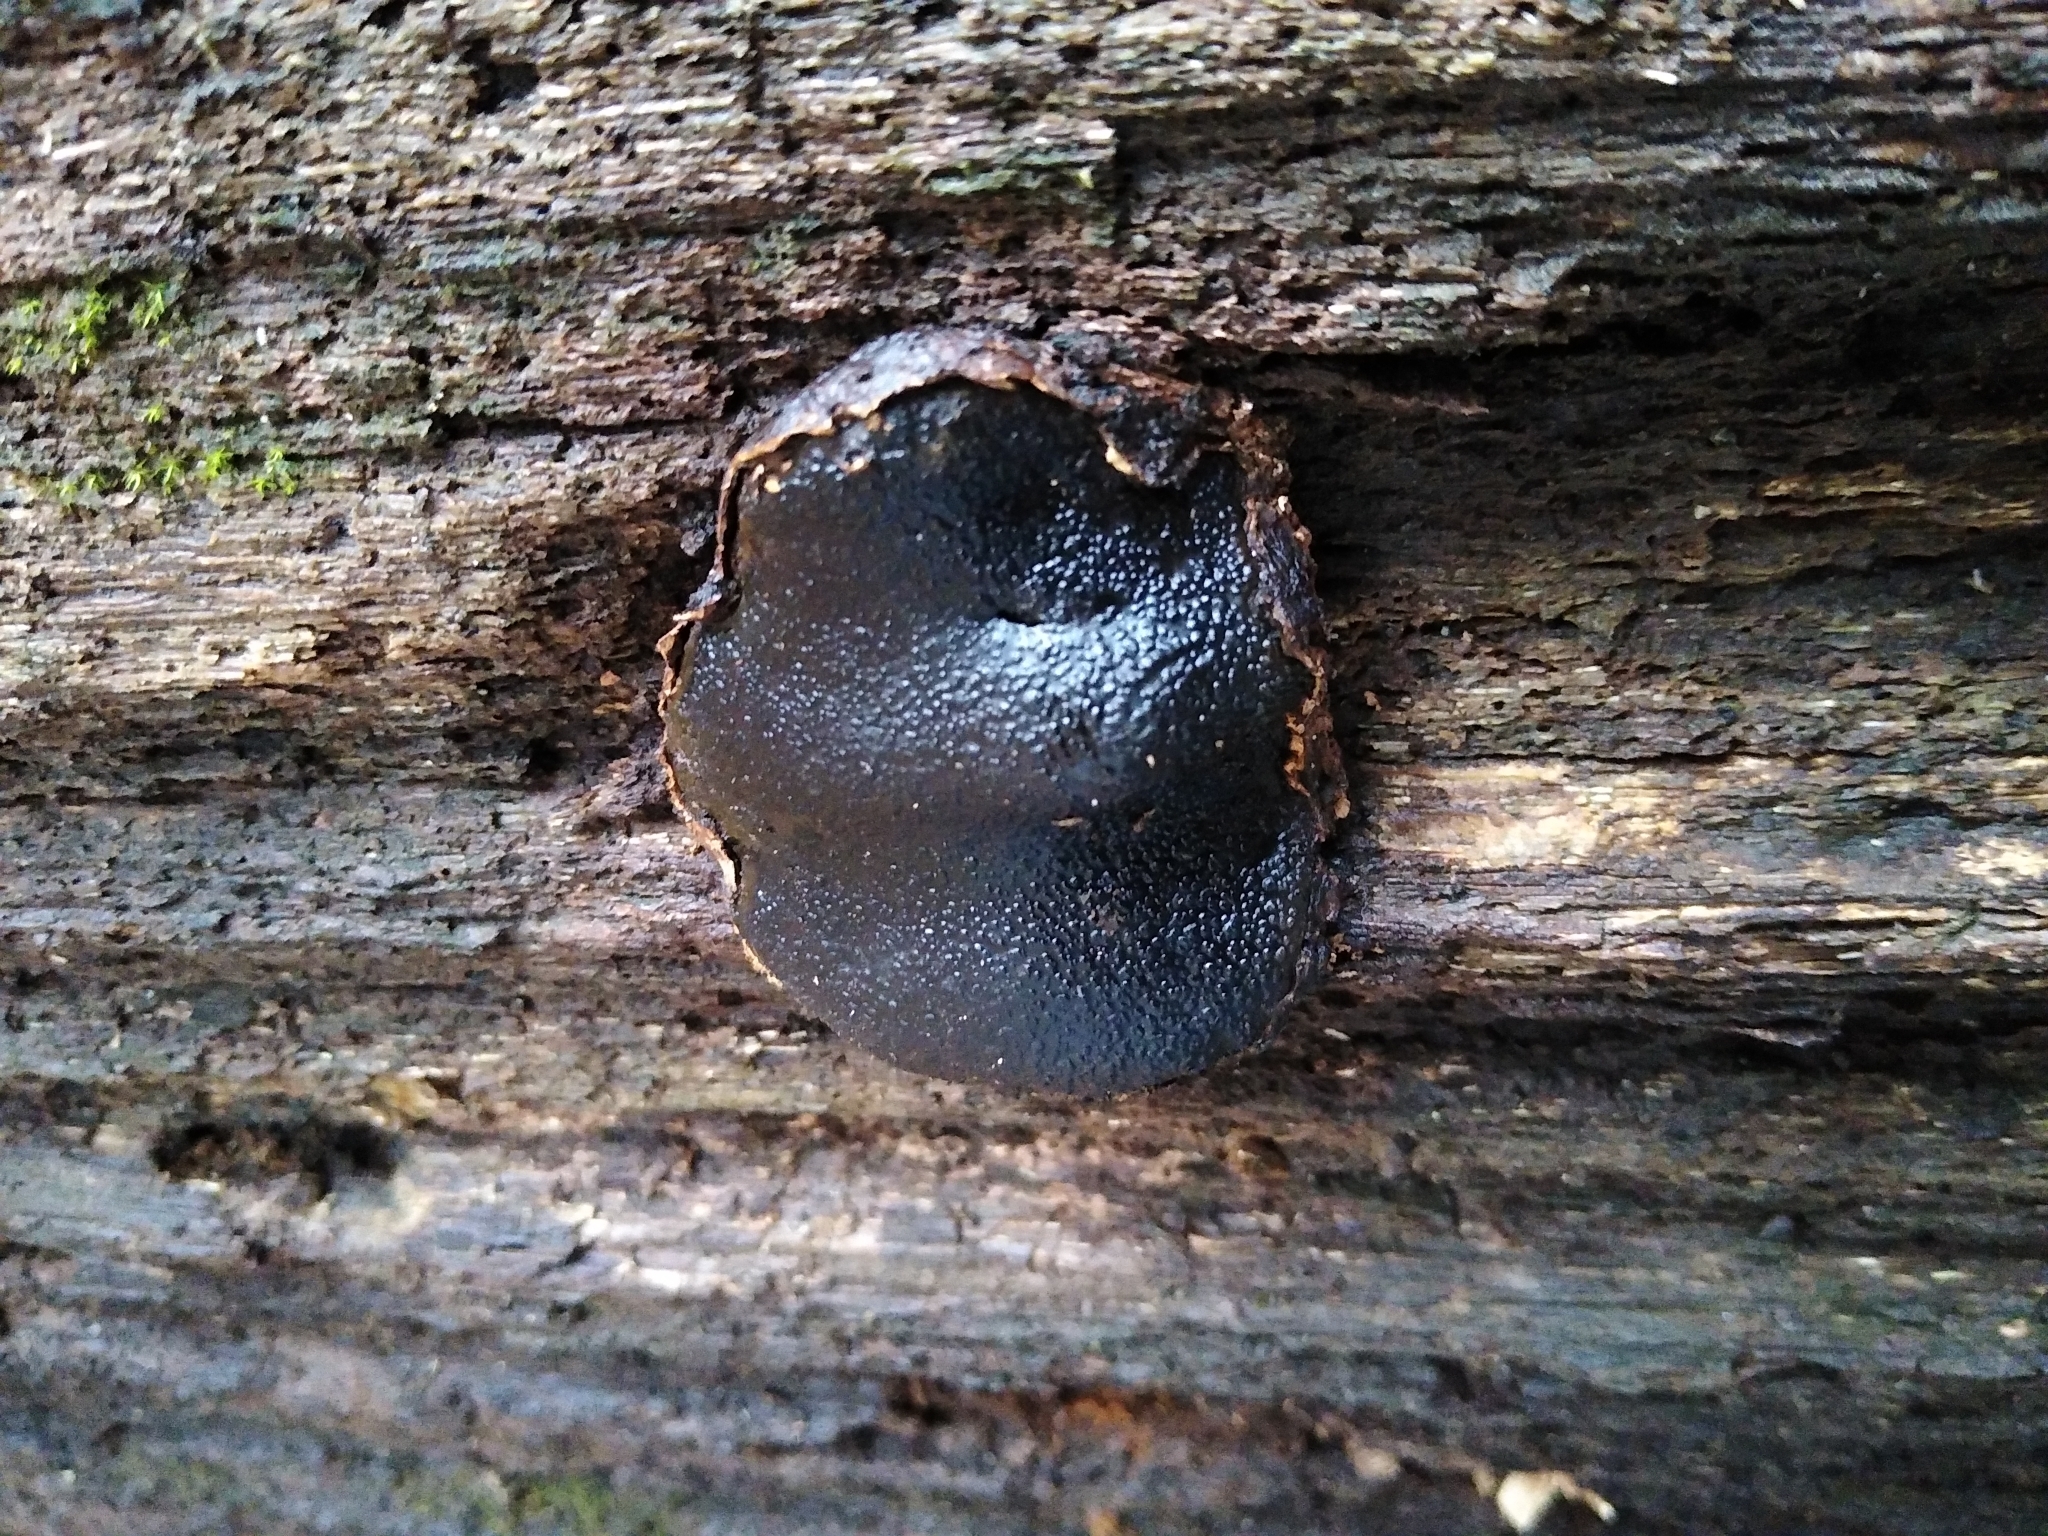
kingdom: Fungi
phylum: Ascomycota
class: Sordariomycetes
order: Boliniales
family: Boliniaceae
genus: Camarops
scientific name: Camarops petersii
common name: Dog's nose fungus
